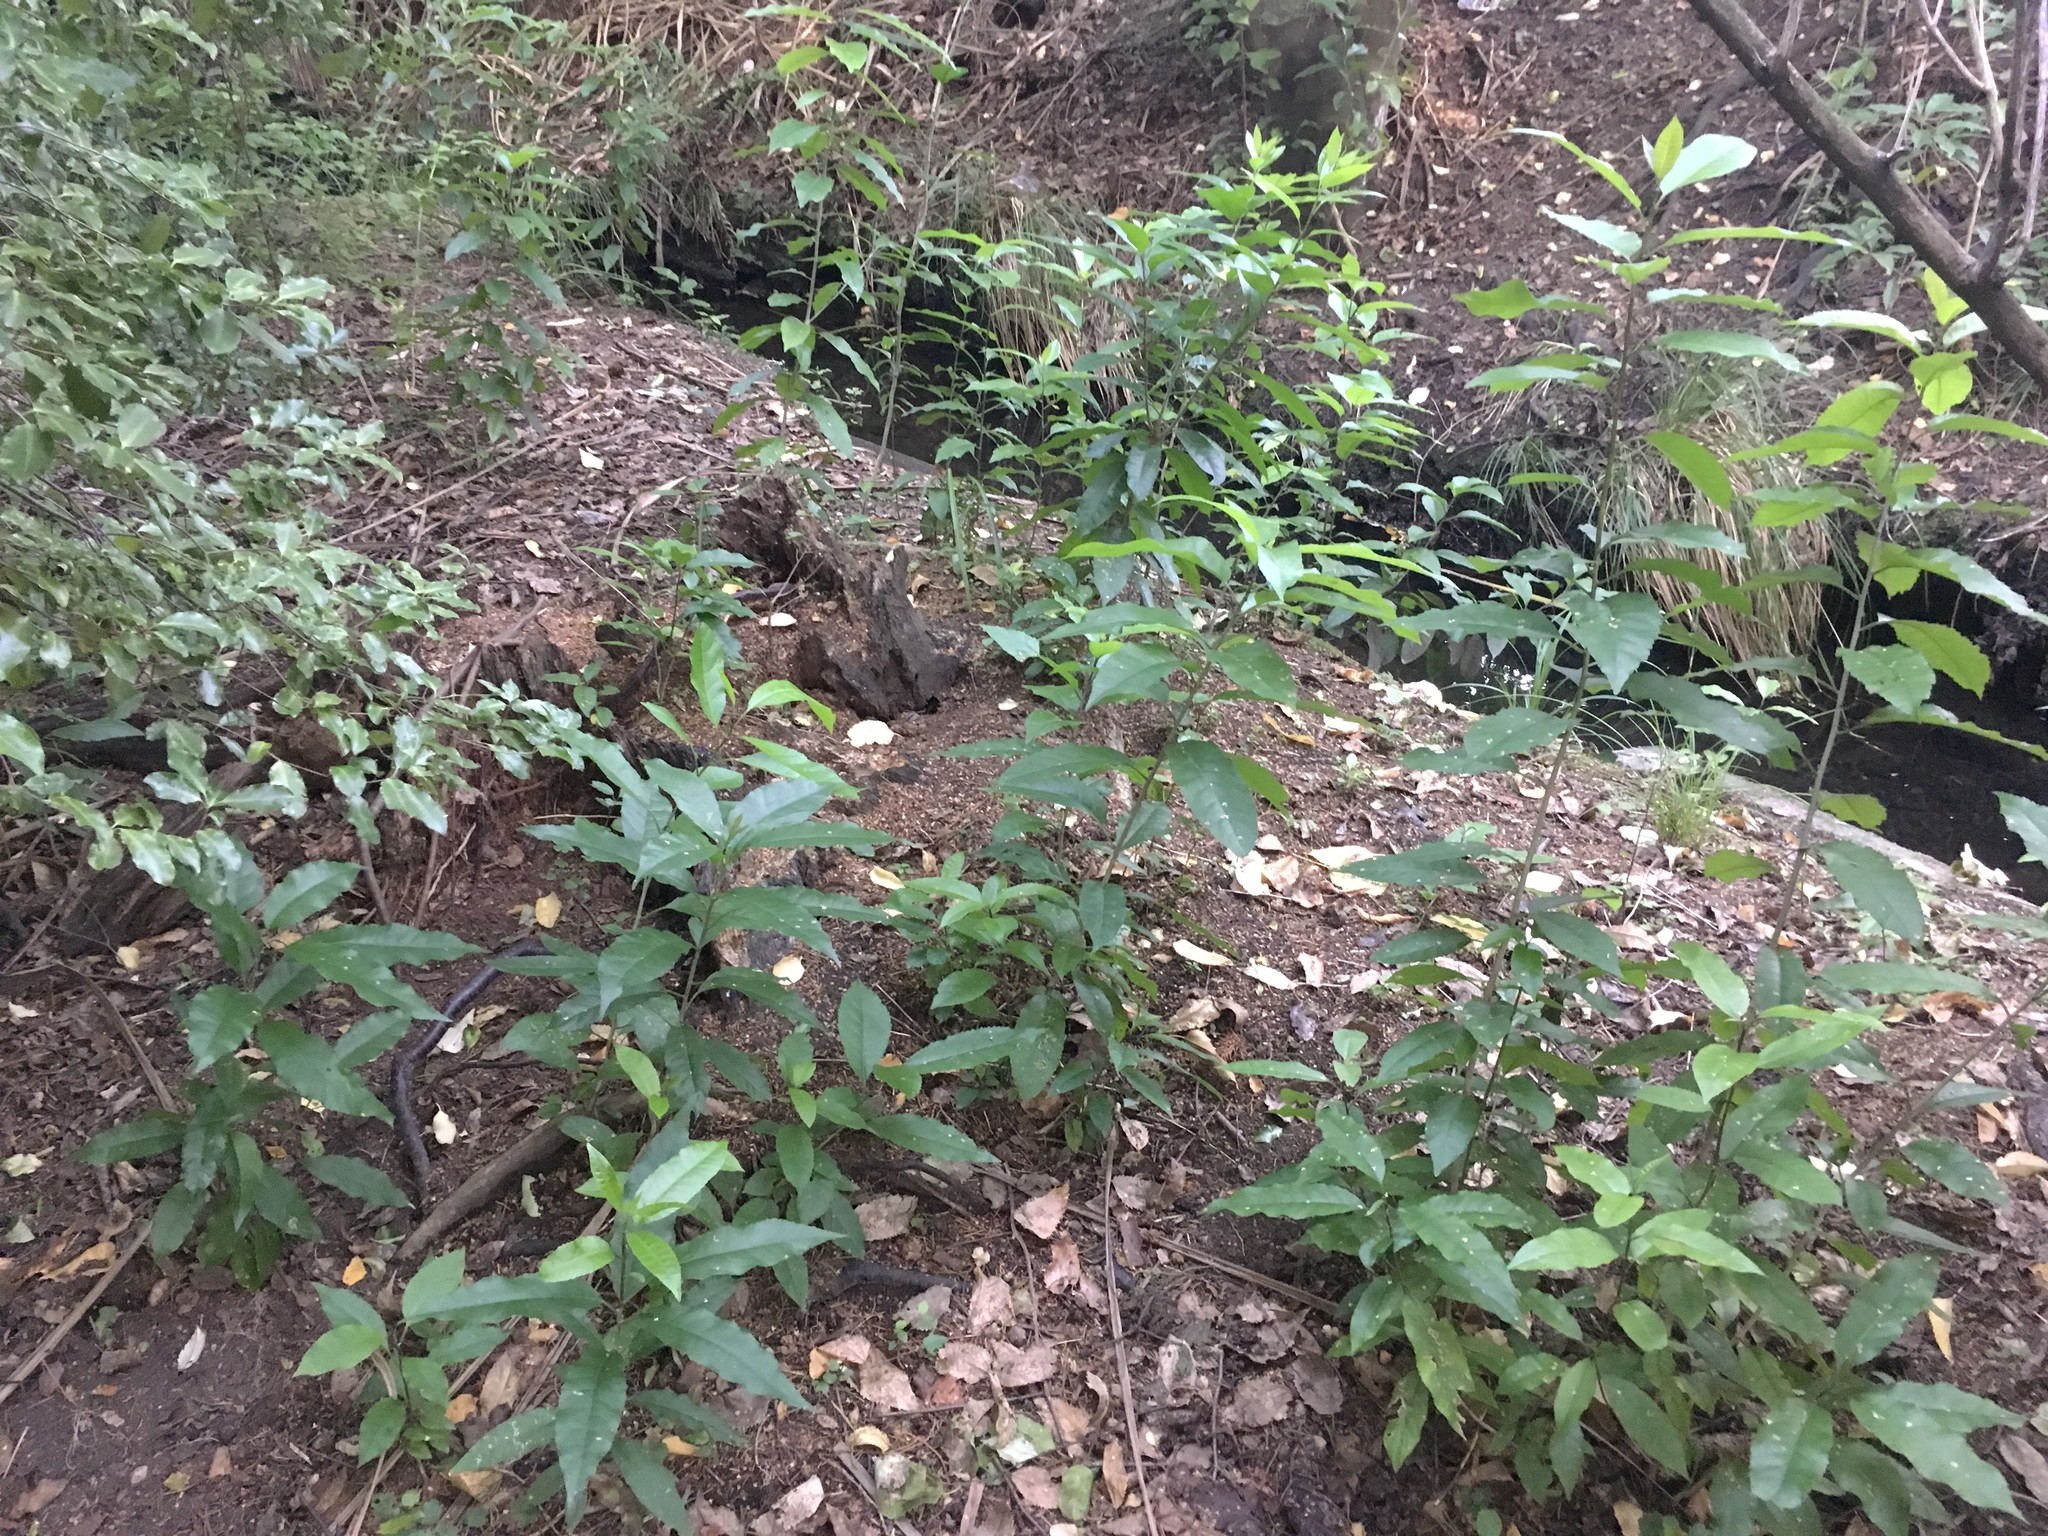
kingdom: Plantae
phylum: Tracheophyta
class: Magnoliopsida
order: Malpighiales
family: Violaceae
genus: Melicytus
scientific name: Melicytus ramiflorus
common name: Mahoe
